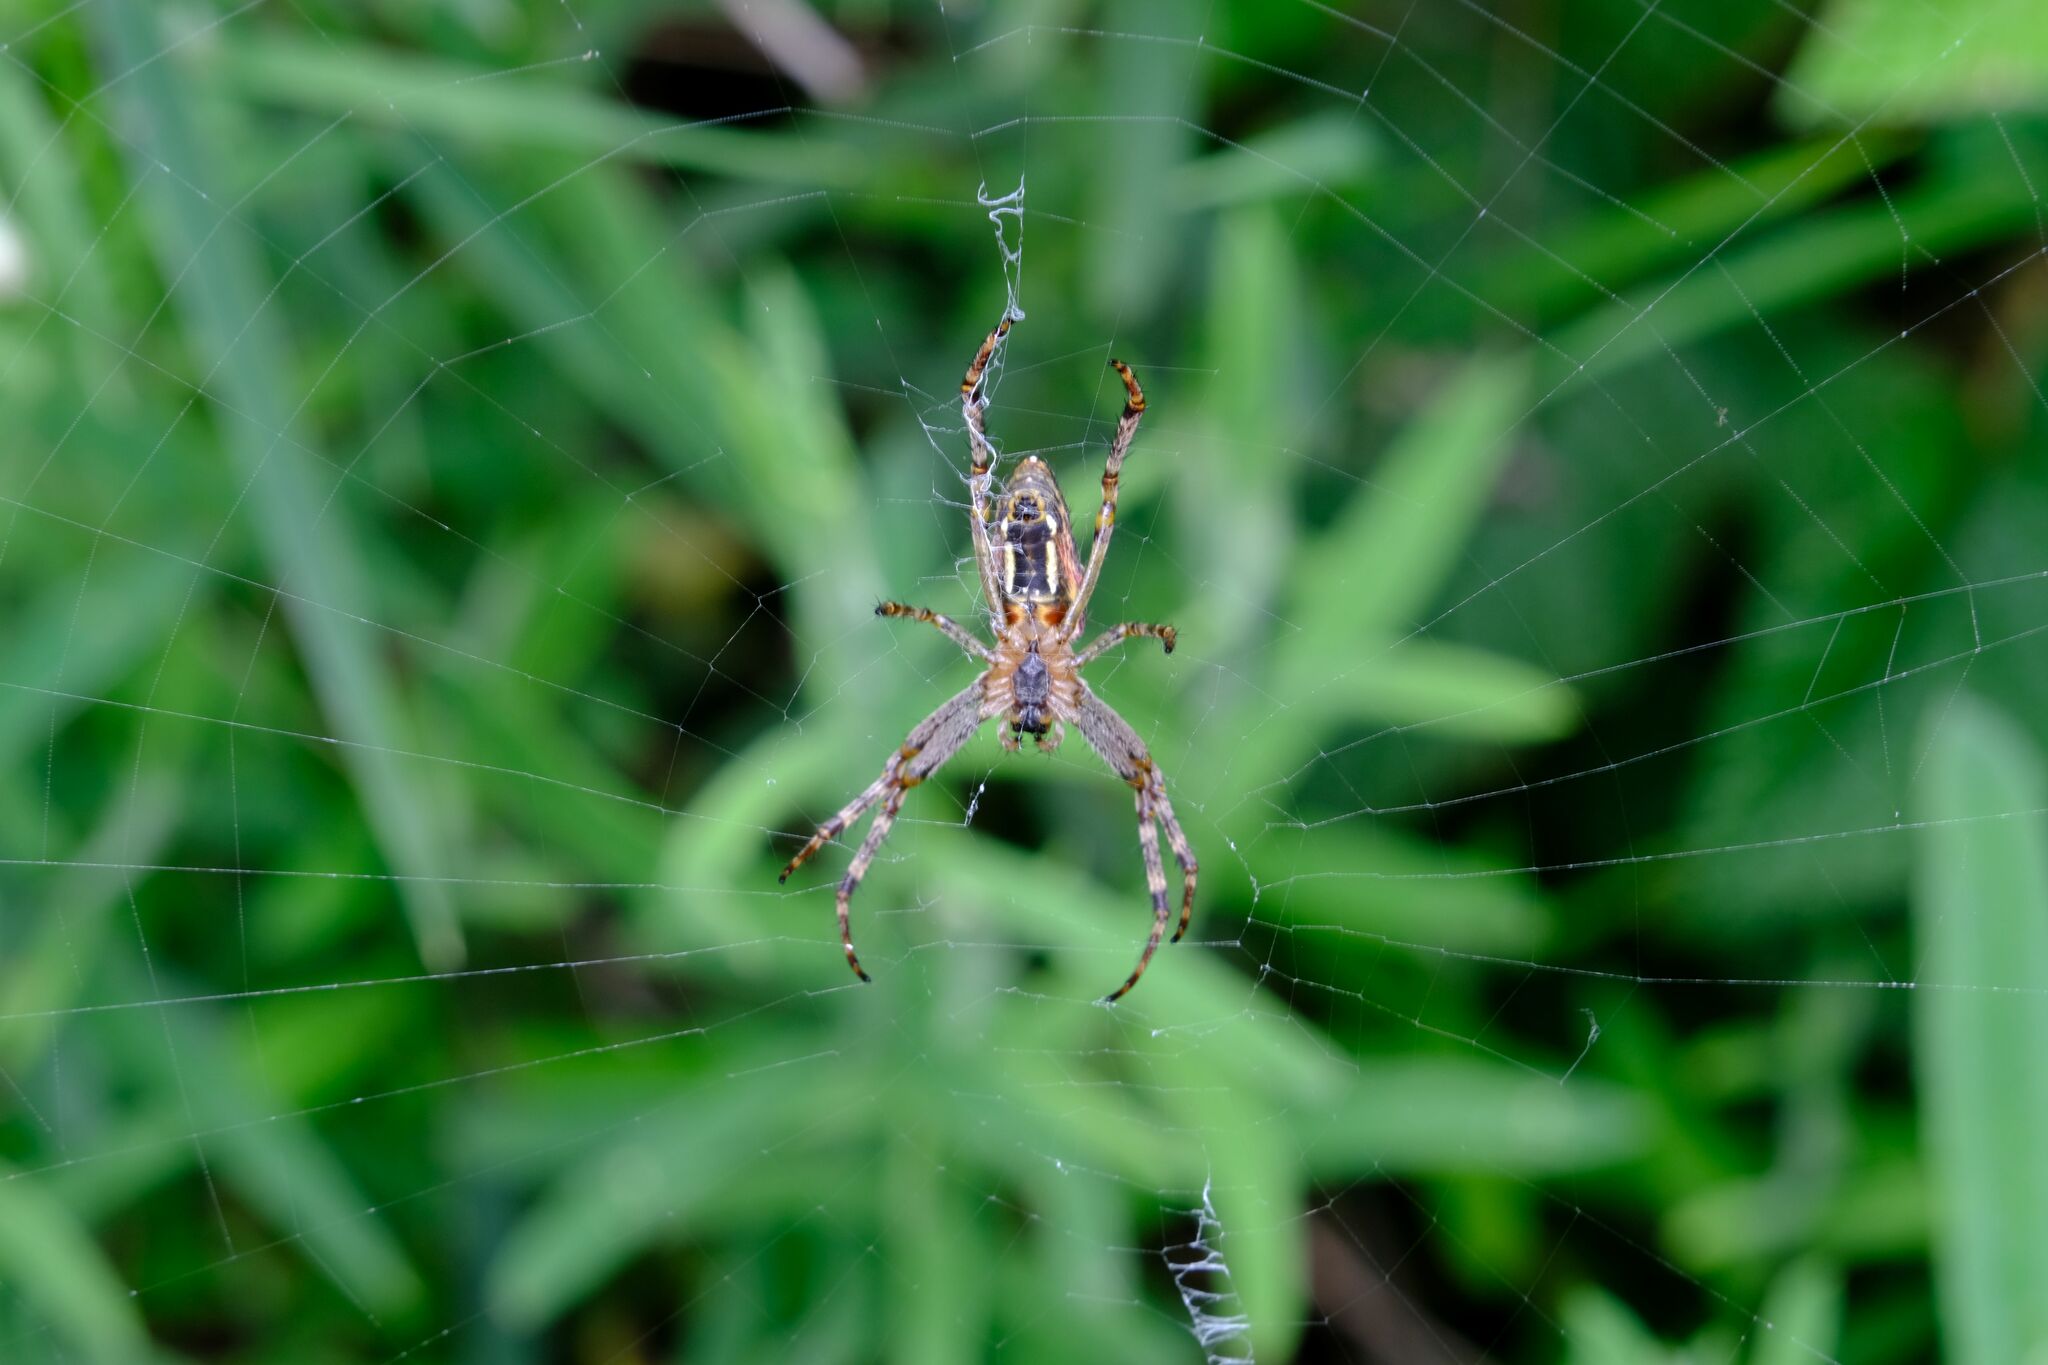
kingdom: Animalia
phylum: Arthropoda
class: Arachnida
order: Araneae
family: Araneidae
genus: Plebs
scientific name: Plebs bradleyi
